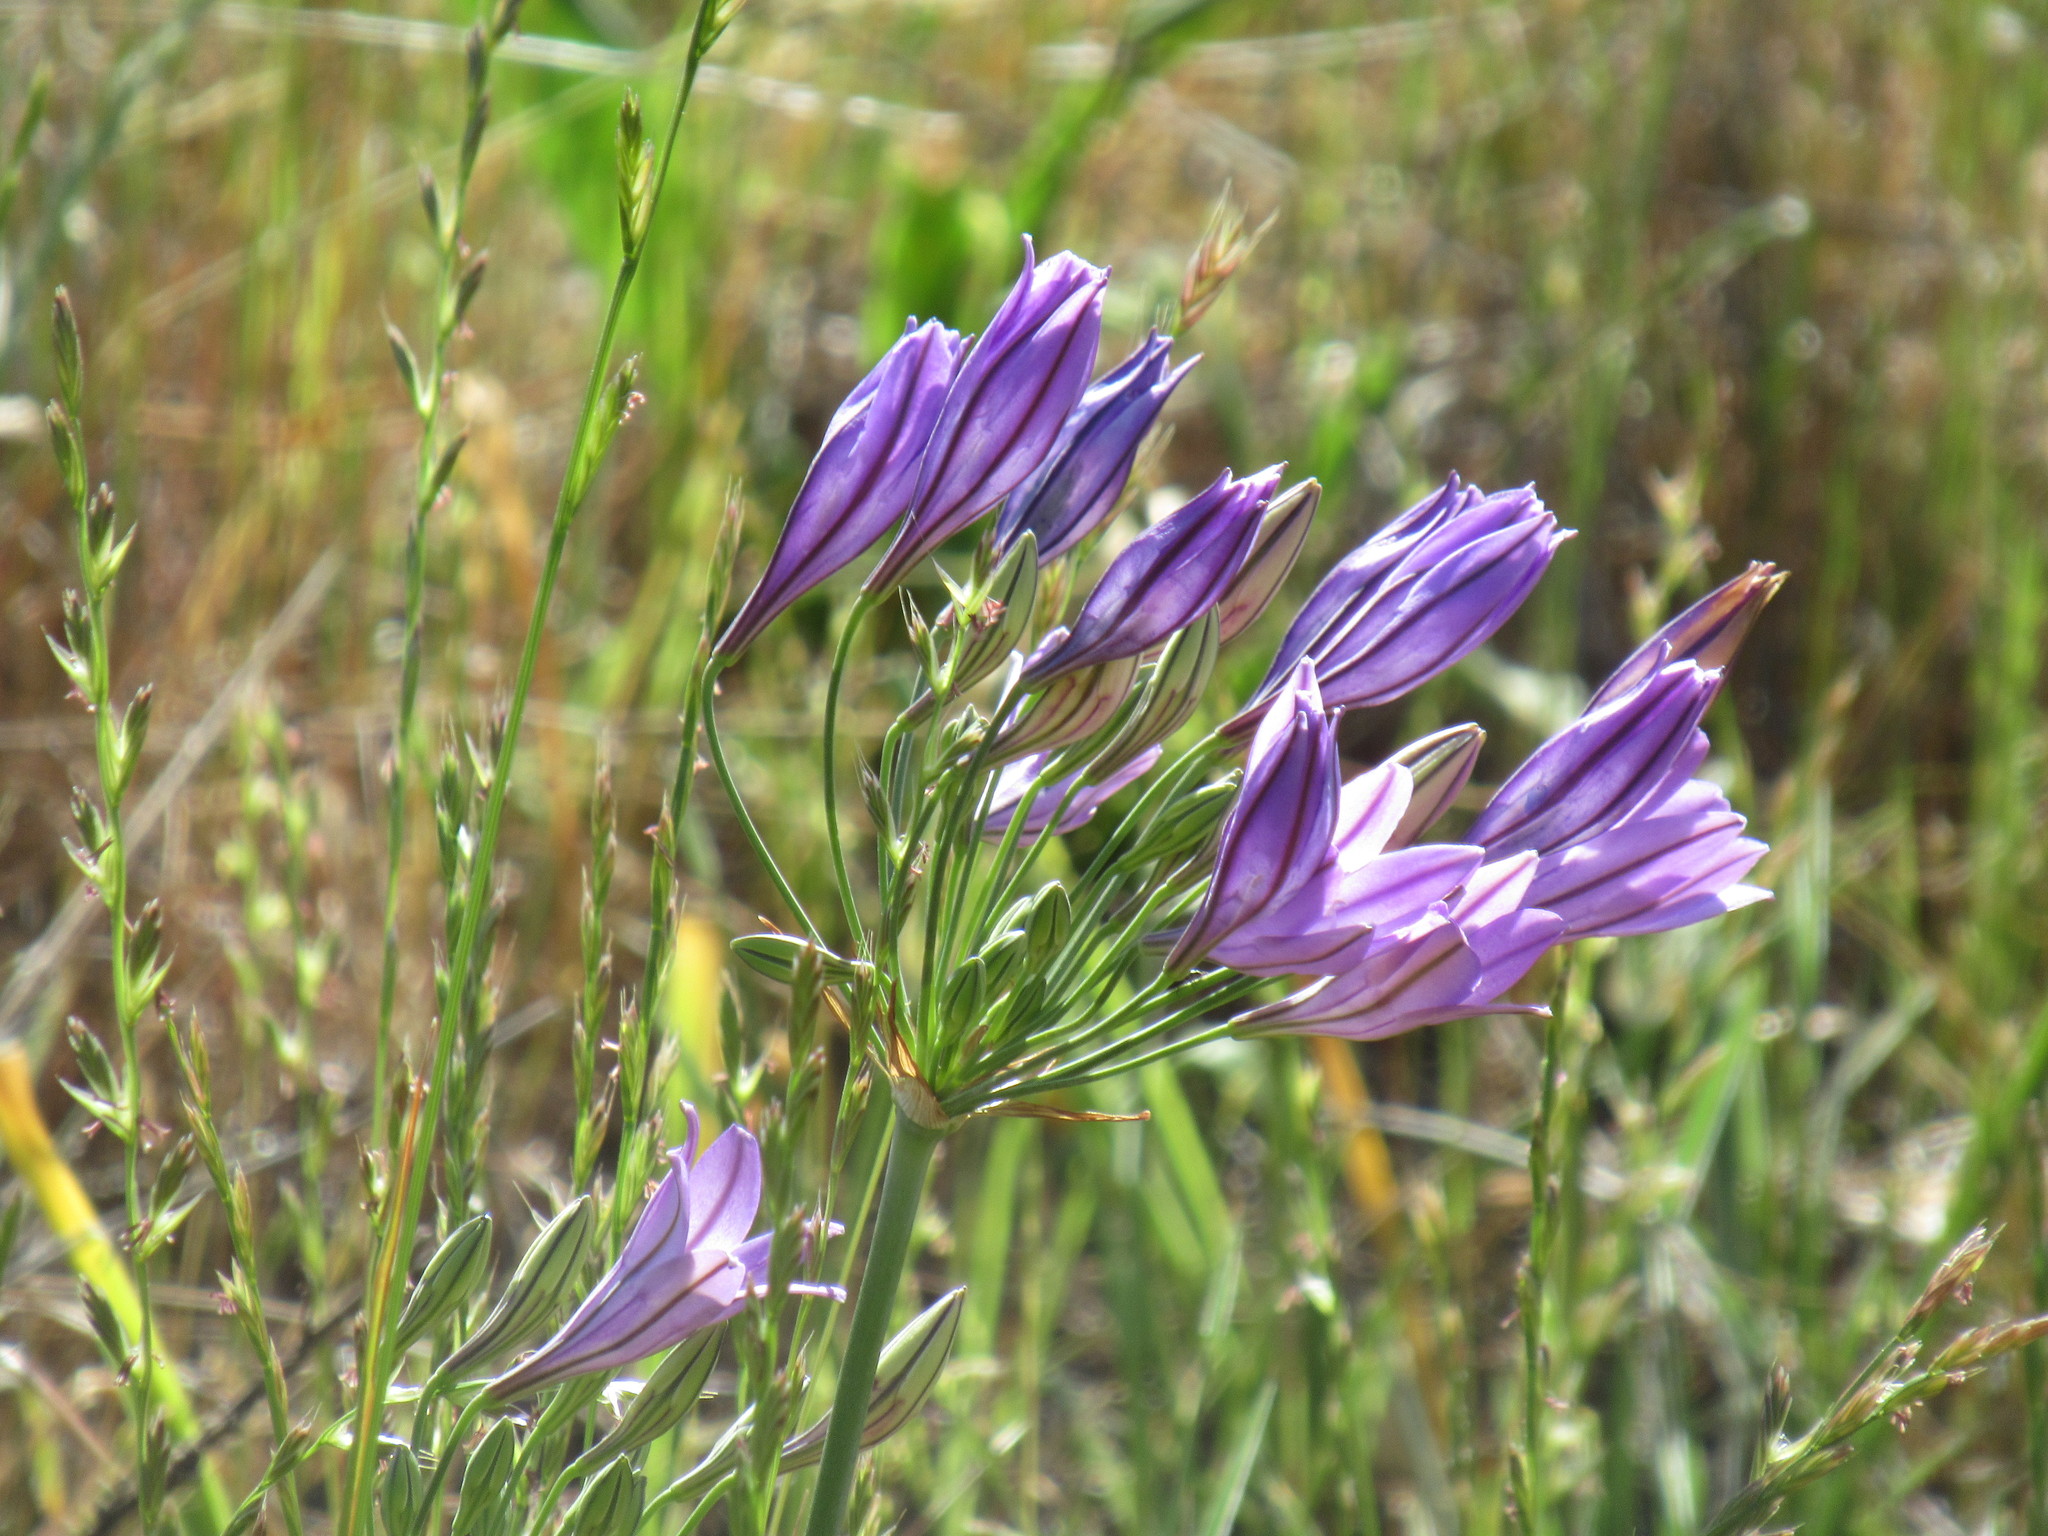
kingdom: Plantae
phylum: Tracheophyta
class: Liliopsida
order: Asparagales
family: Asparagaceae
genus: Triteleia
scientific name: Triteleia laxa
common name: Triplet-lily
